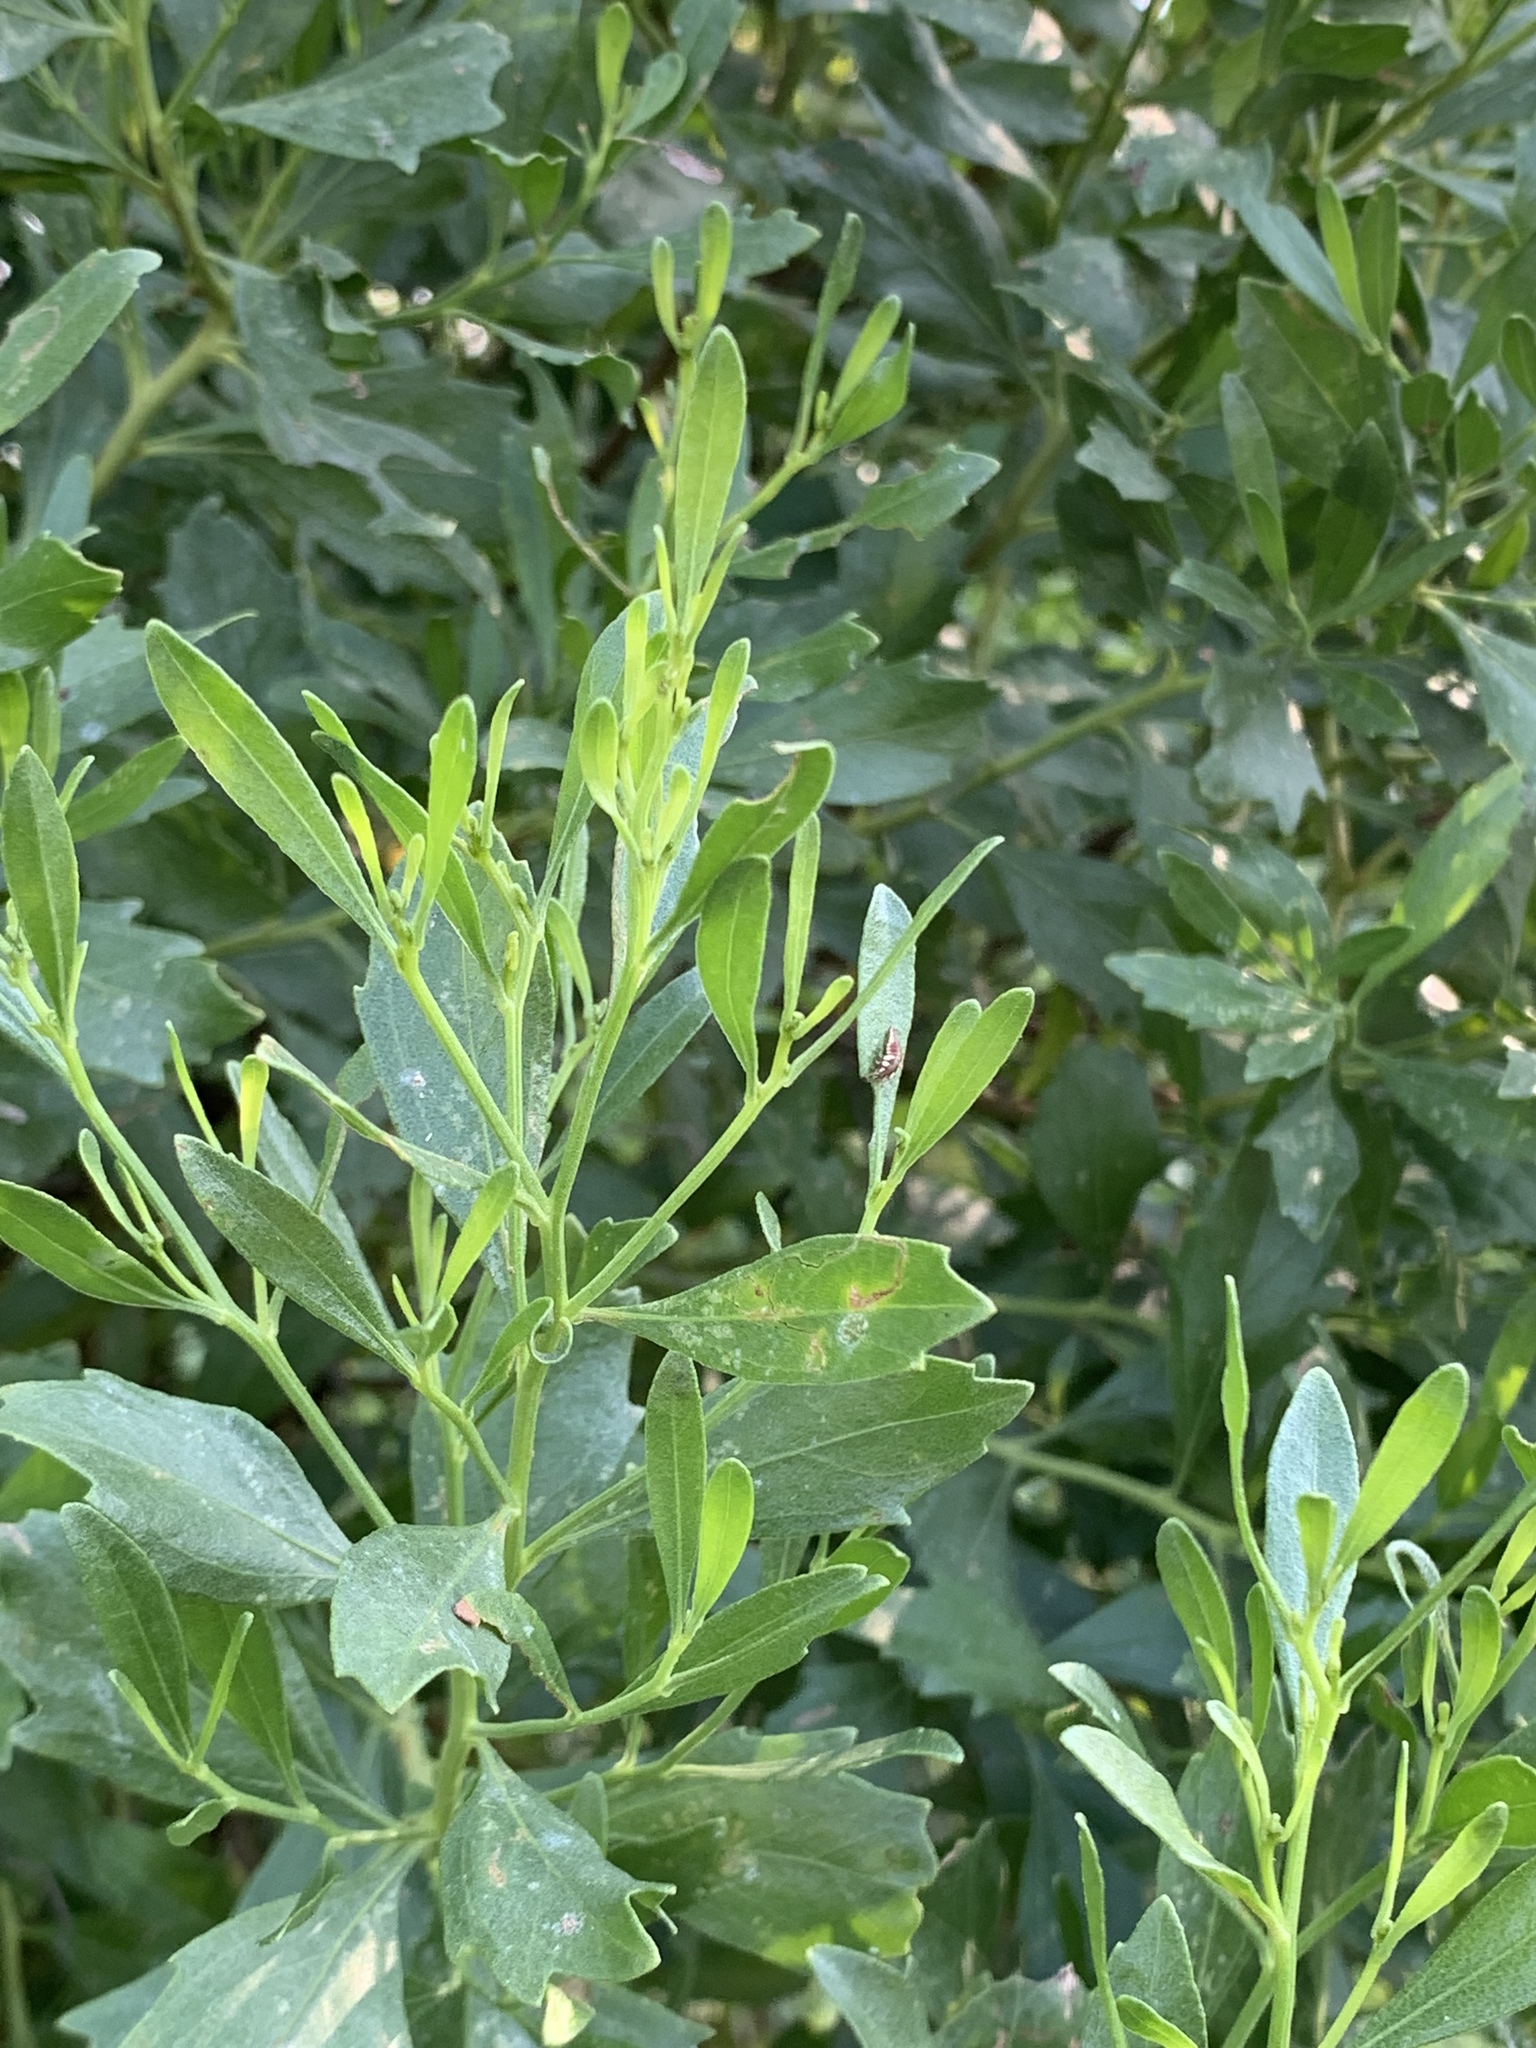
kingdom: Plantae
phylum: Tracheophyta
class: Magnoliopsida
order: Asterales
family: Asteraceae
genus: Baccharis
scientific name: Baccharis halimifolia
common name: Eastern baccharis
